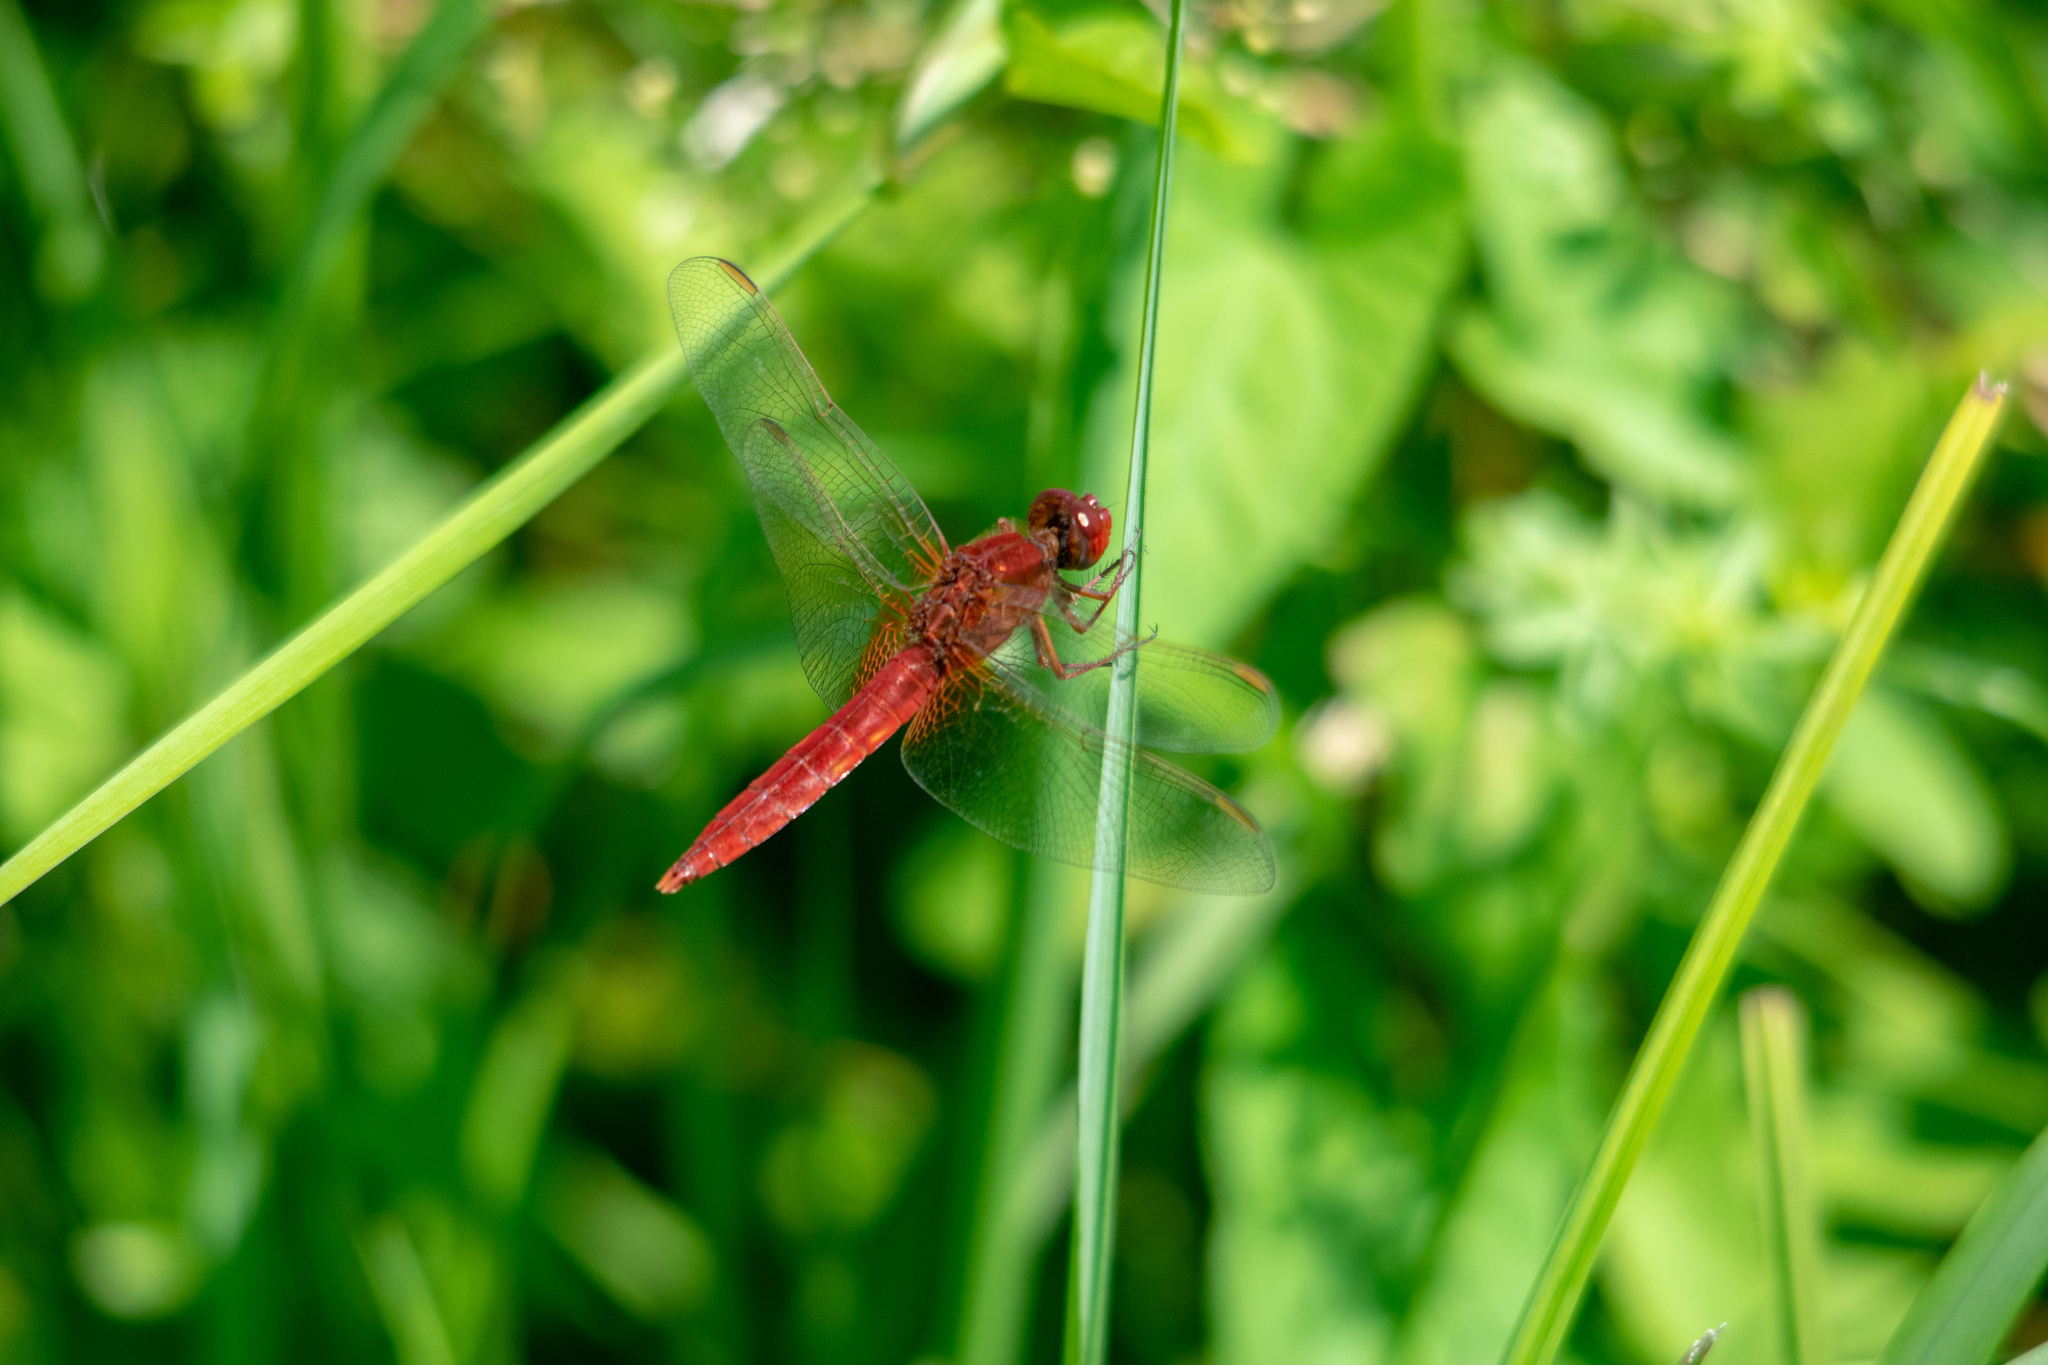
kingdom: Animalia
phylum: Arthropoda
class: Insecta
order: Odonata
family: Libellulidae
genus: Crocothemis
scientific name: Crocothemis erythraea
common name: Scarlet dragonfly
